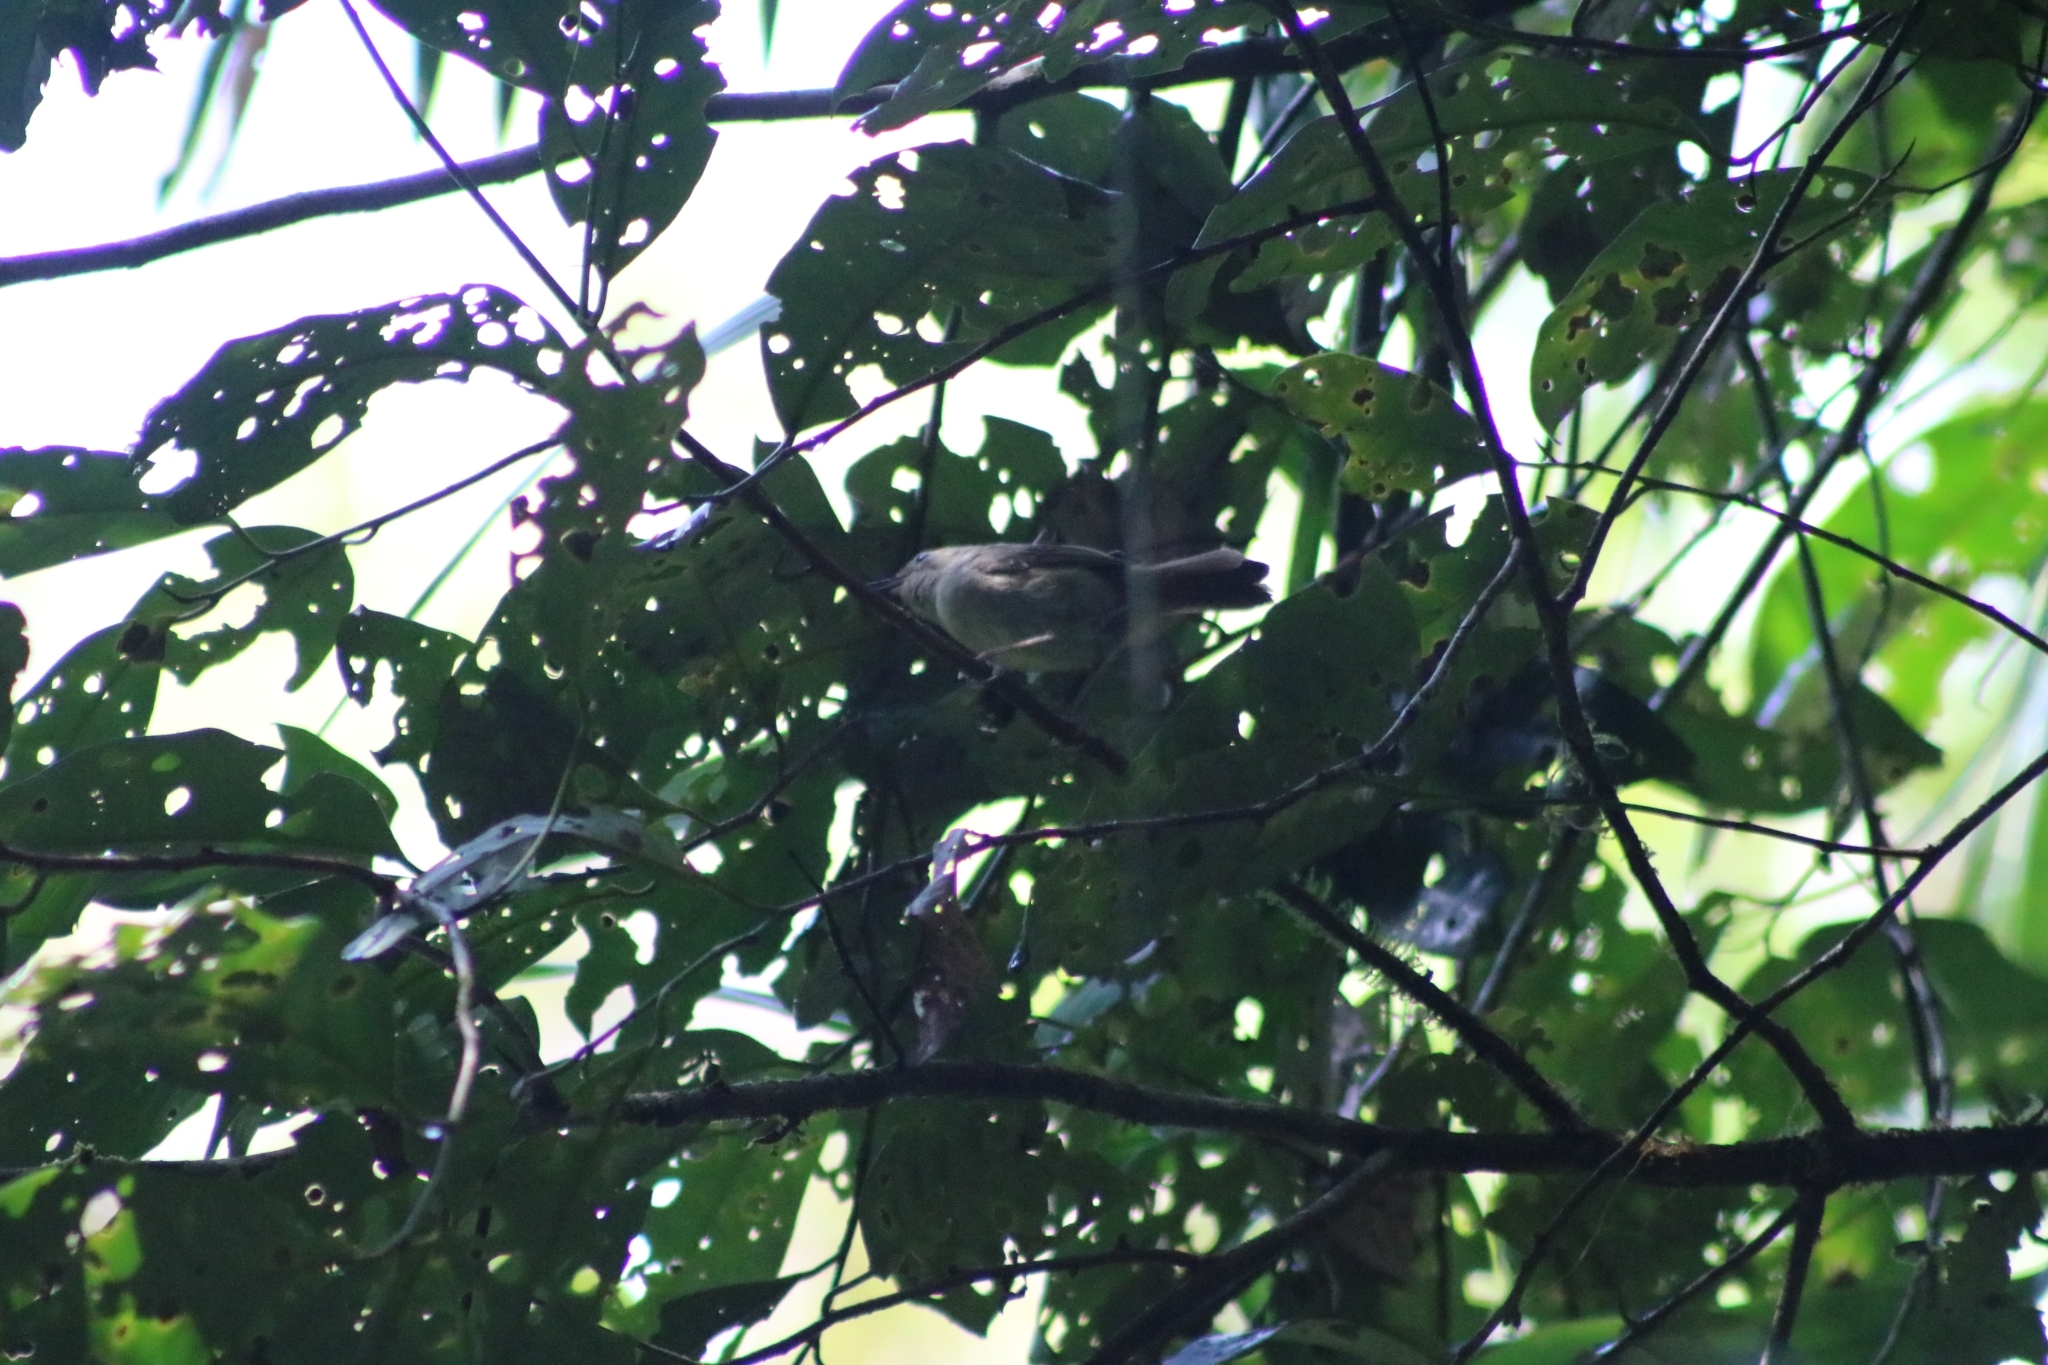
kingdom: Animalia
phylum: Chordata
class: Aves
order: Passeriformes
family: Acanthizidae
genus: Sericornis
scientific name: Sericornis magnirostra
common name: Large-billed scrubwren
